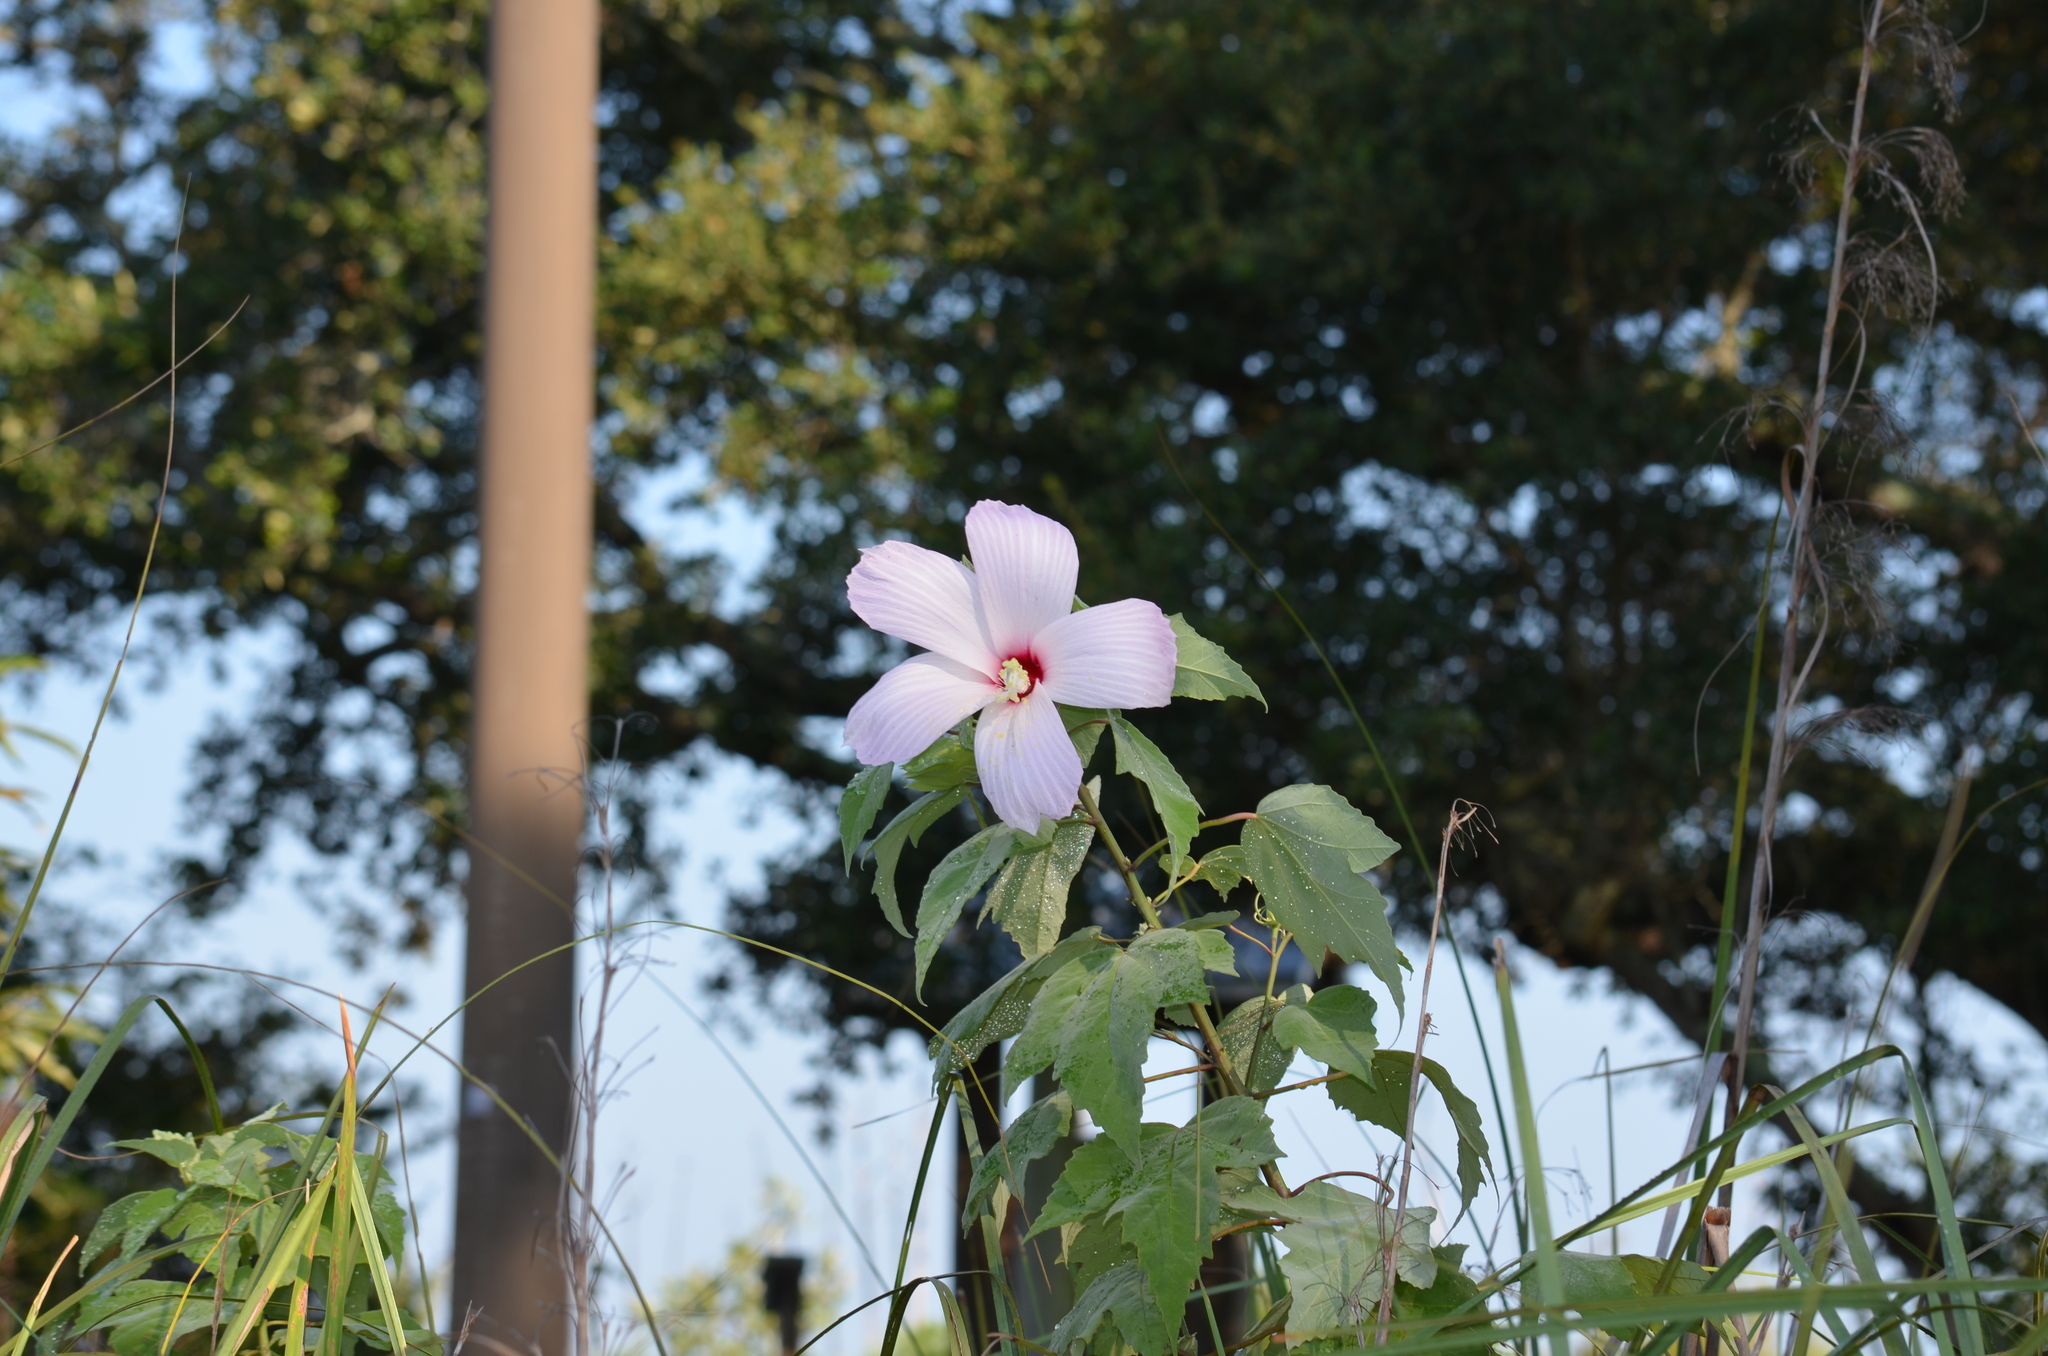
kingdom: Plantae
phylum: Tracheophyta
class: Magnoliopsida
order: Malvales
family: Malvaceae
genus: Hibiscus
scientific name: Hibiscus grandiflorus
